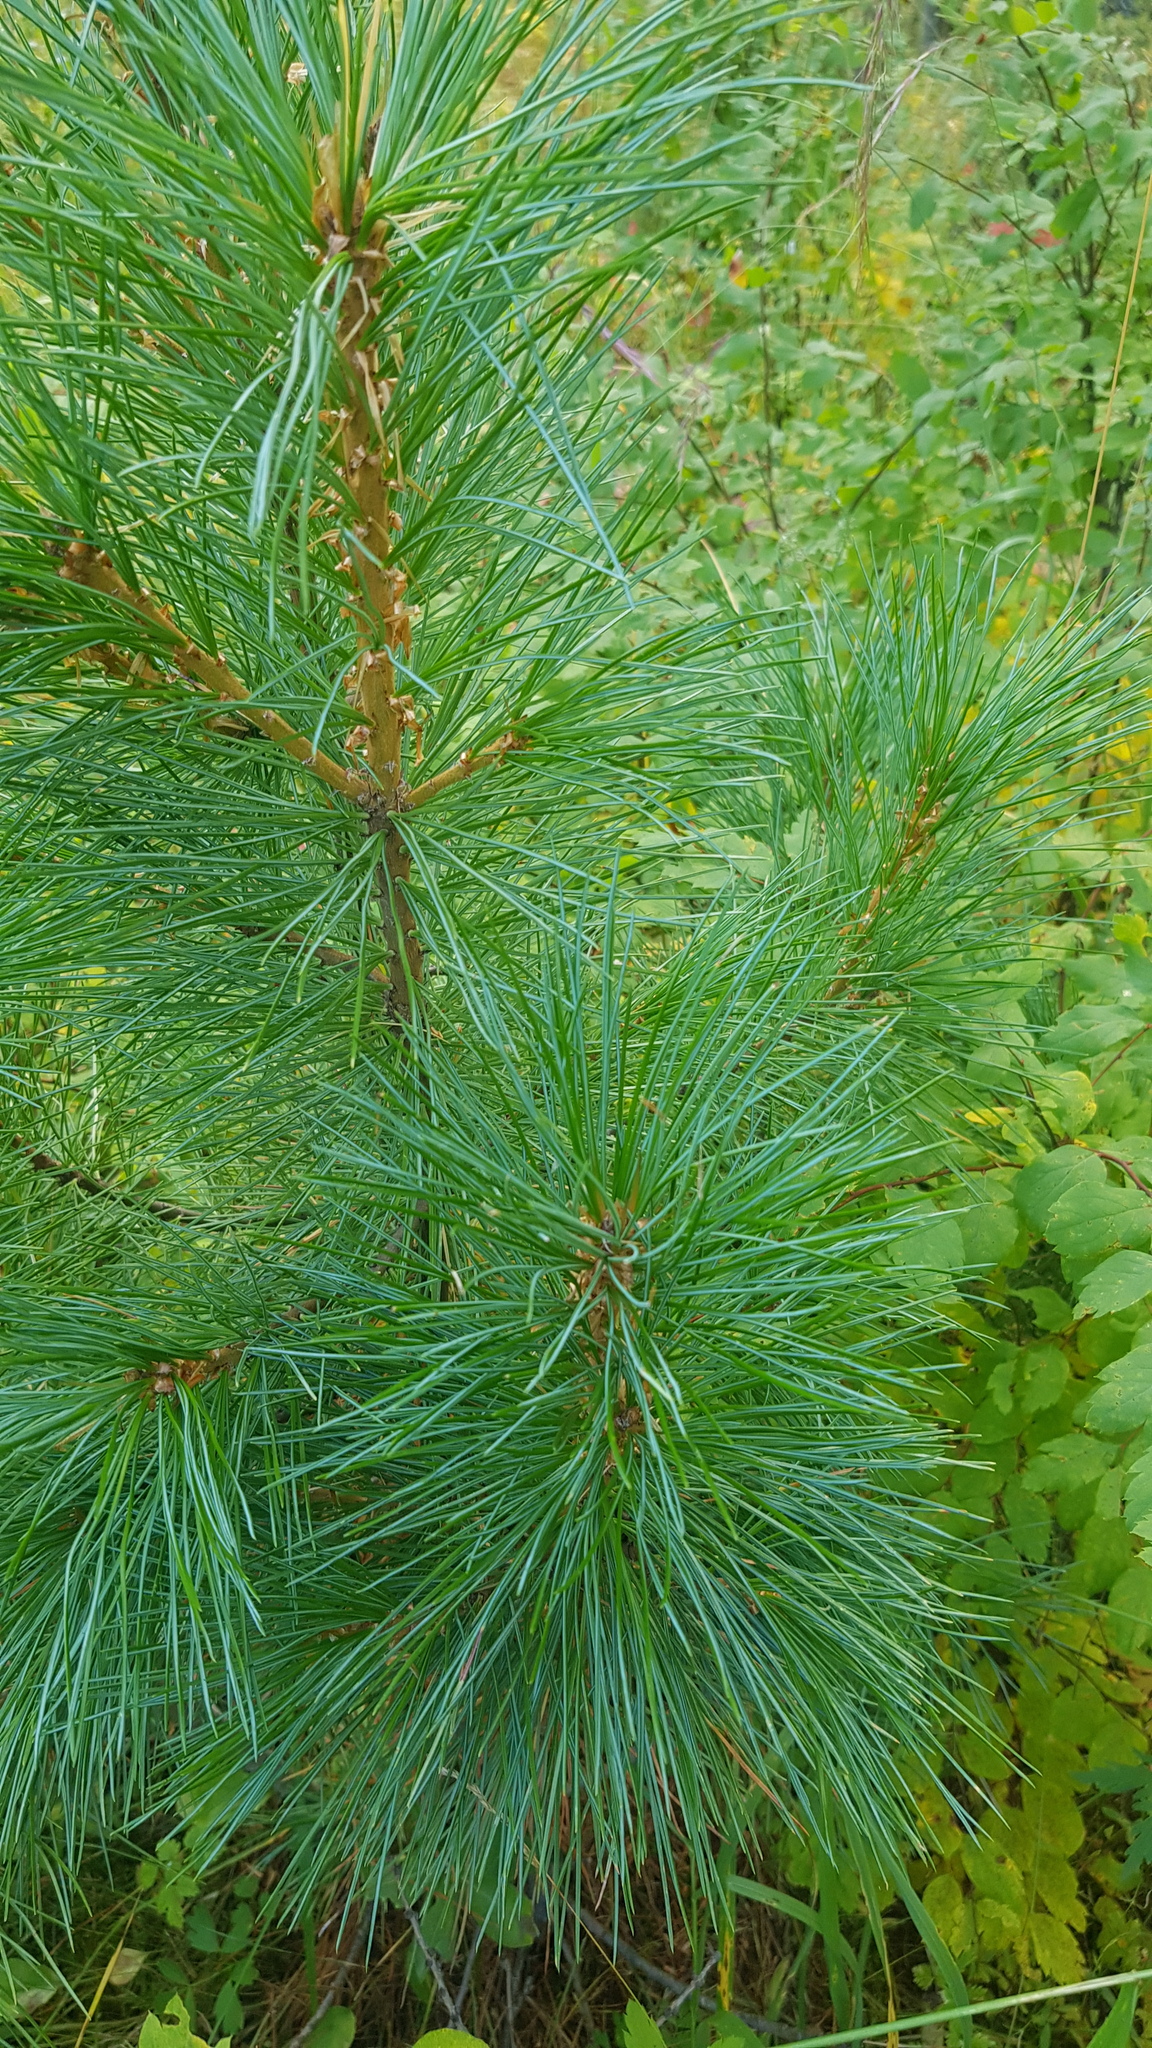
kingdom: Plantae
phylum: Tracheophyta
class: Pinopsida
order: Pinales
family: Pinaceae
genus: Pinus
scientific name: Pinus sibirica
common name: Siberian pine
